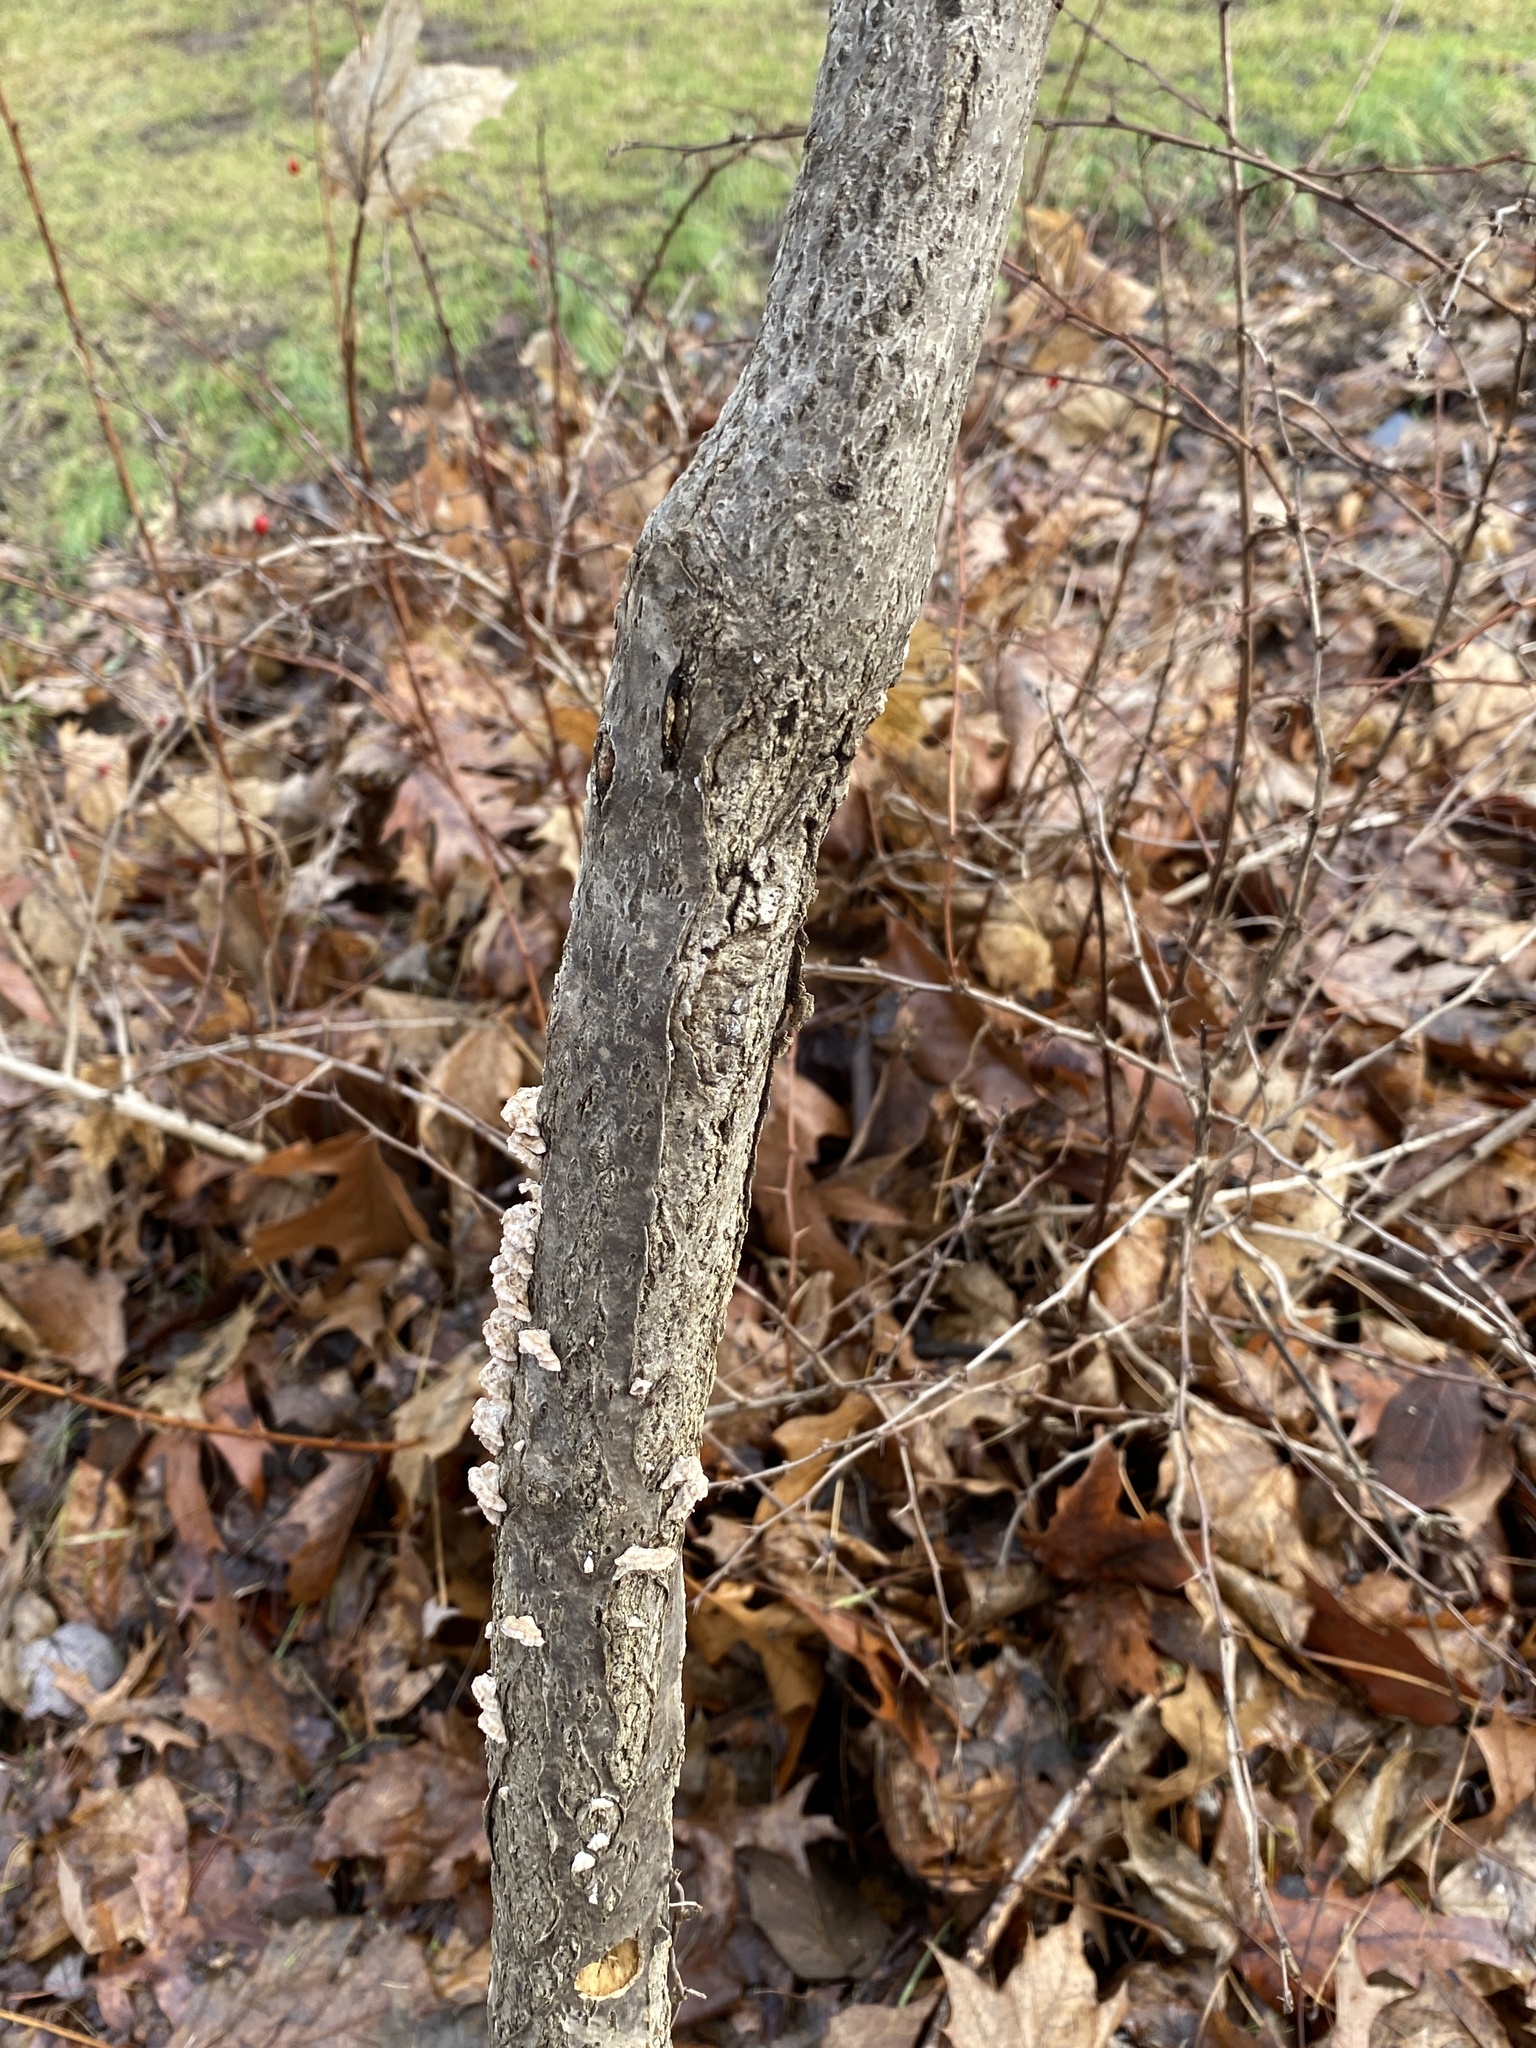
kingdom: Fungi
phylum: Basidiomycota
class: Agaricomycetes
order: Russulales
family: Stereaceae
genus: Stereum
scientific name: Stereum complicatum
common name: Crowded parchment
